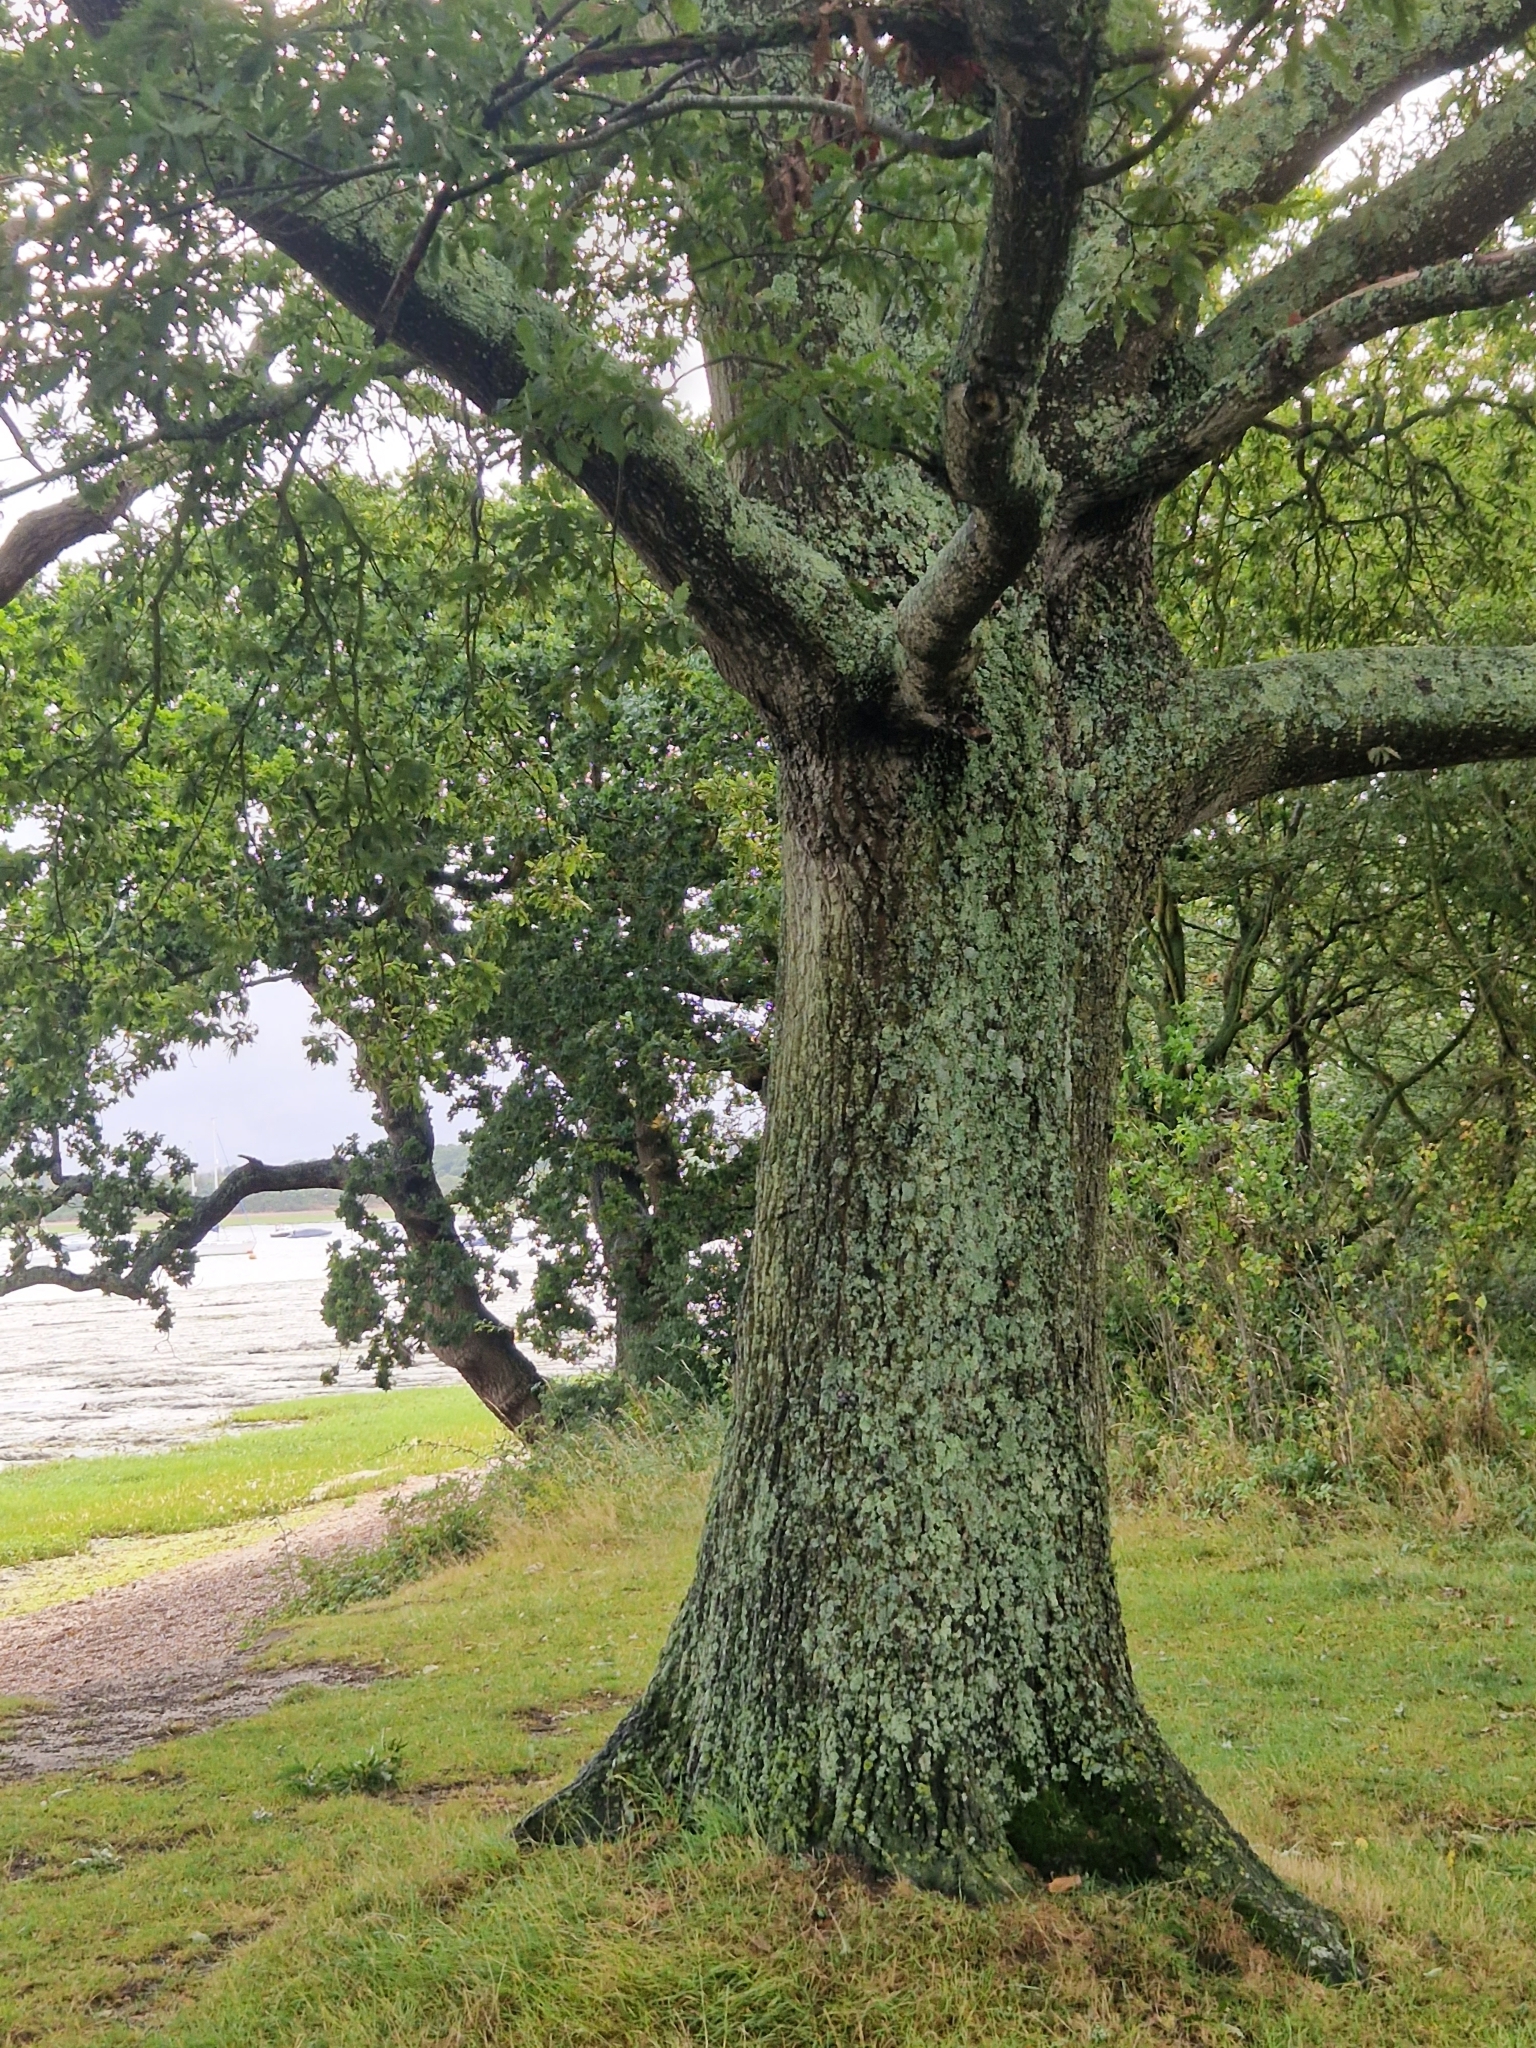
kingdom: Plantae
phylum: Tracheophyta
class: Magnoliopsida
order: Fagales
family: Fagaceae
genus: Quercus
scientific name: Quercus cerris
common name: Turkey oak
